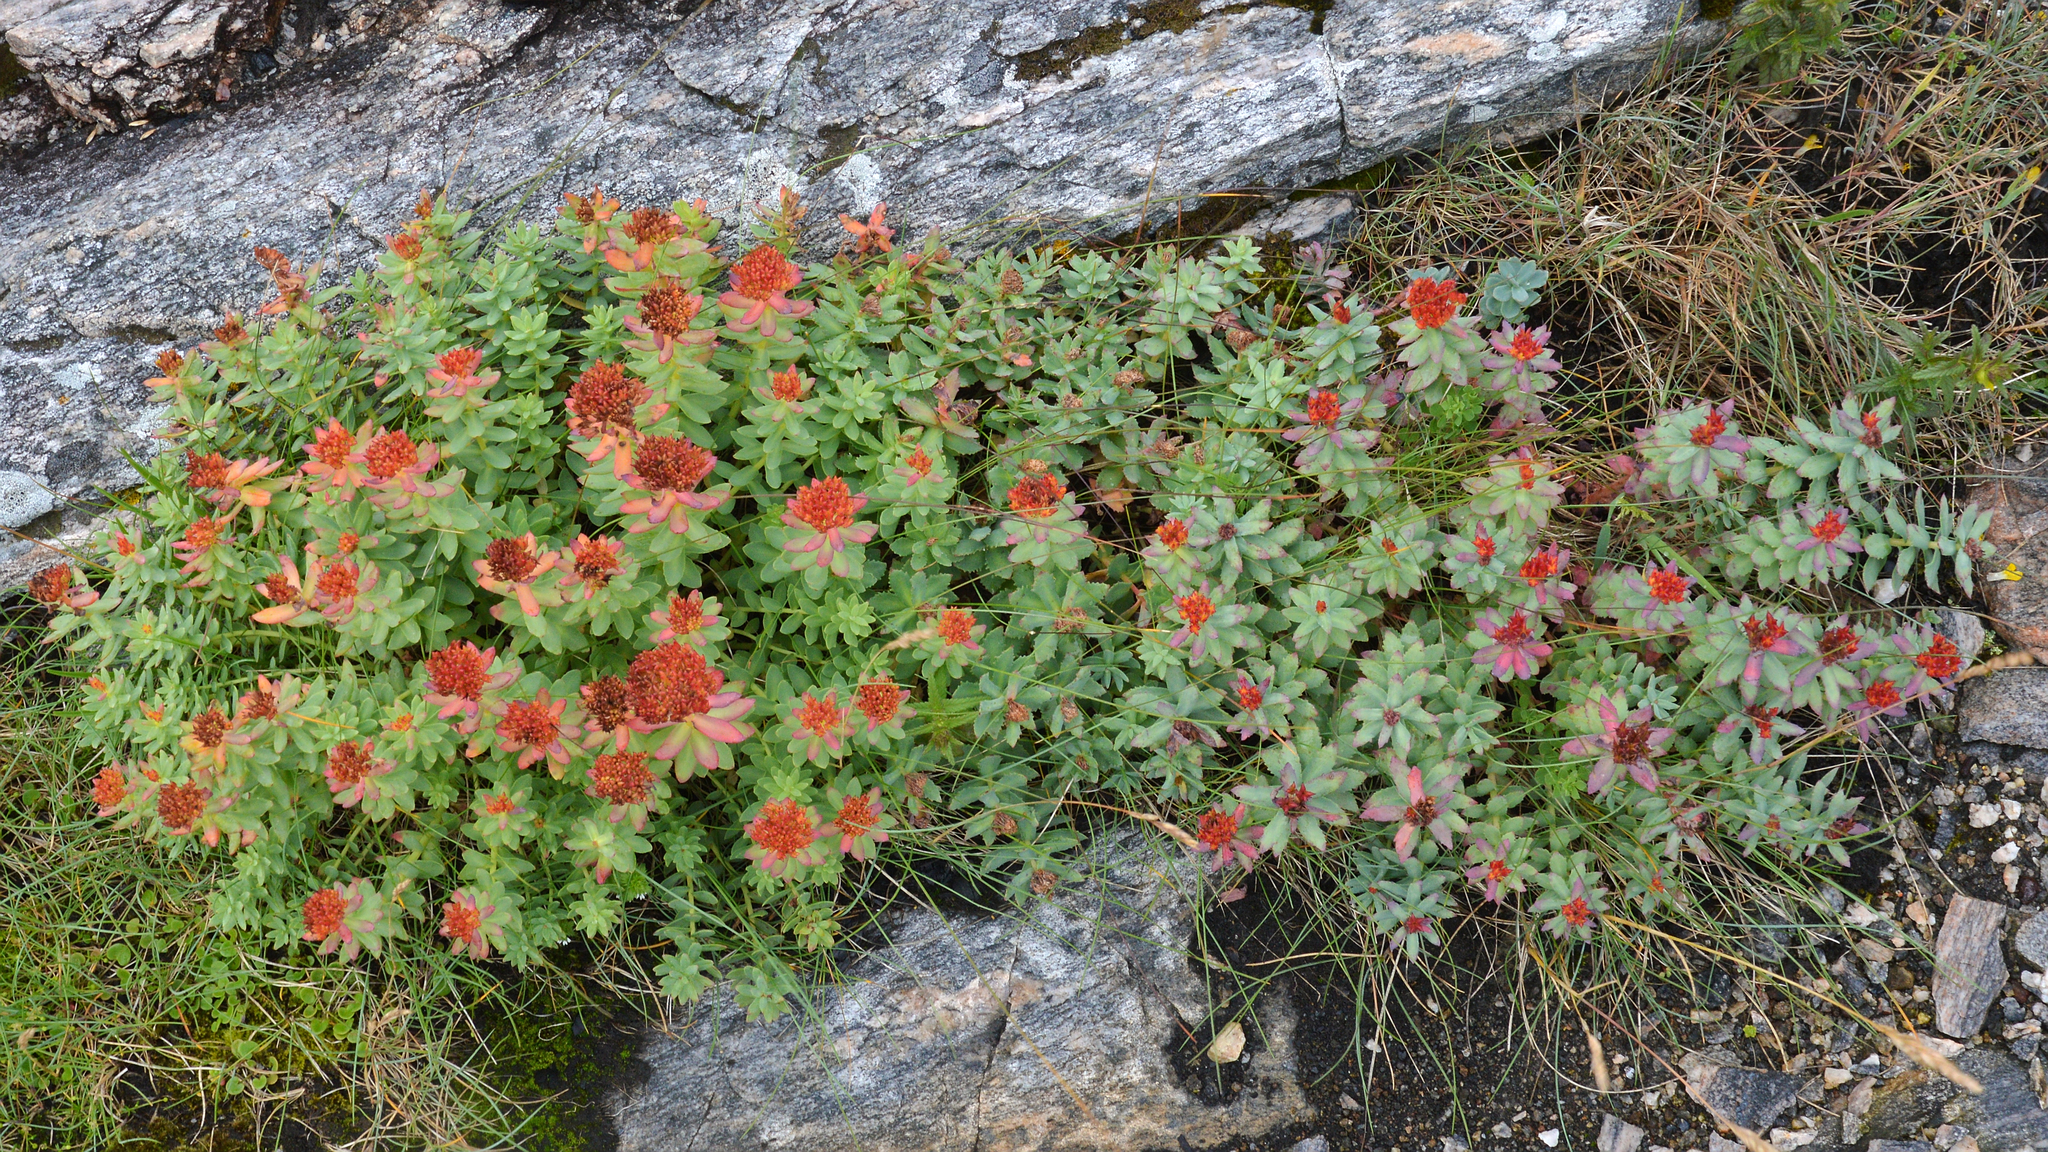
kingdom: Plantae
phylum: Tracheophyta
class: Magnoliopsida
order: Saxifragales
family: Crassulaceae
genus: Rhodiola
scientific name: Rhodiola rosea
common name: Roseroot
